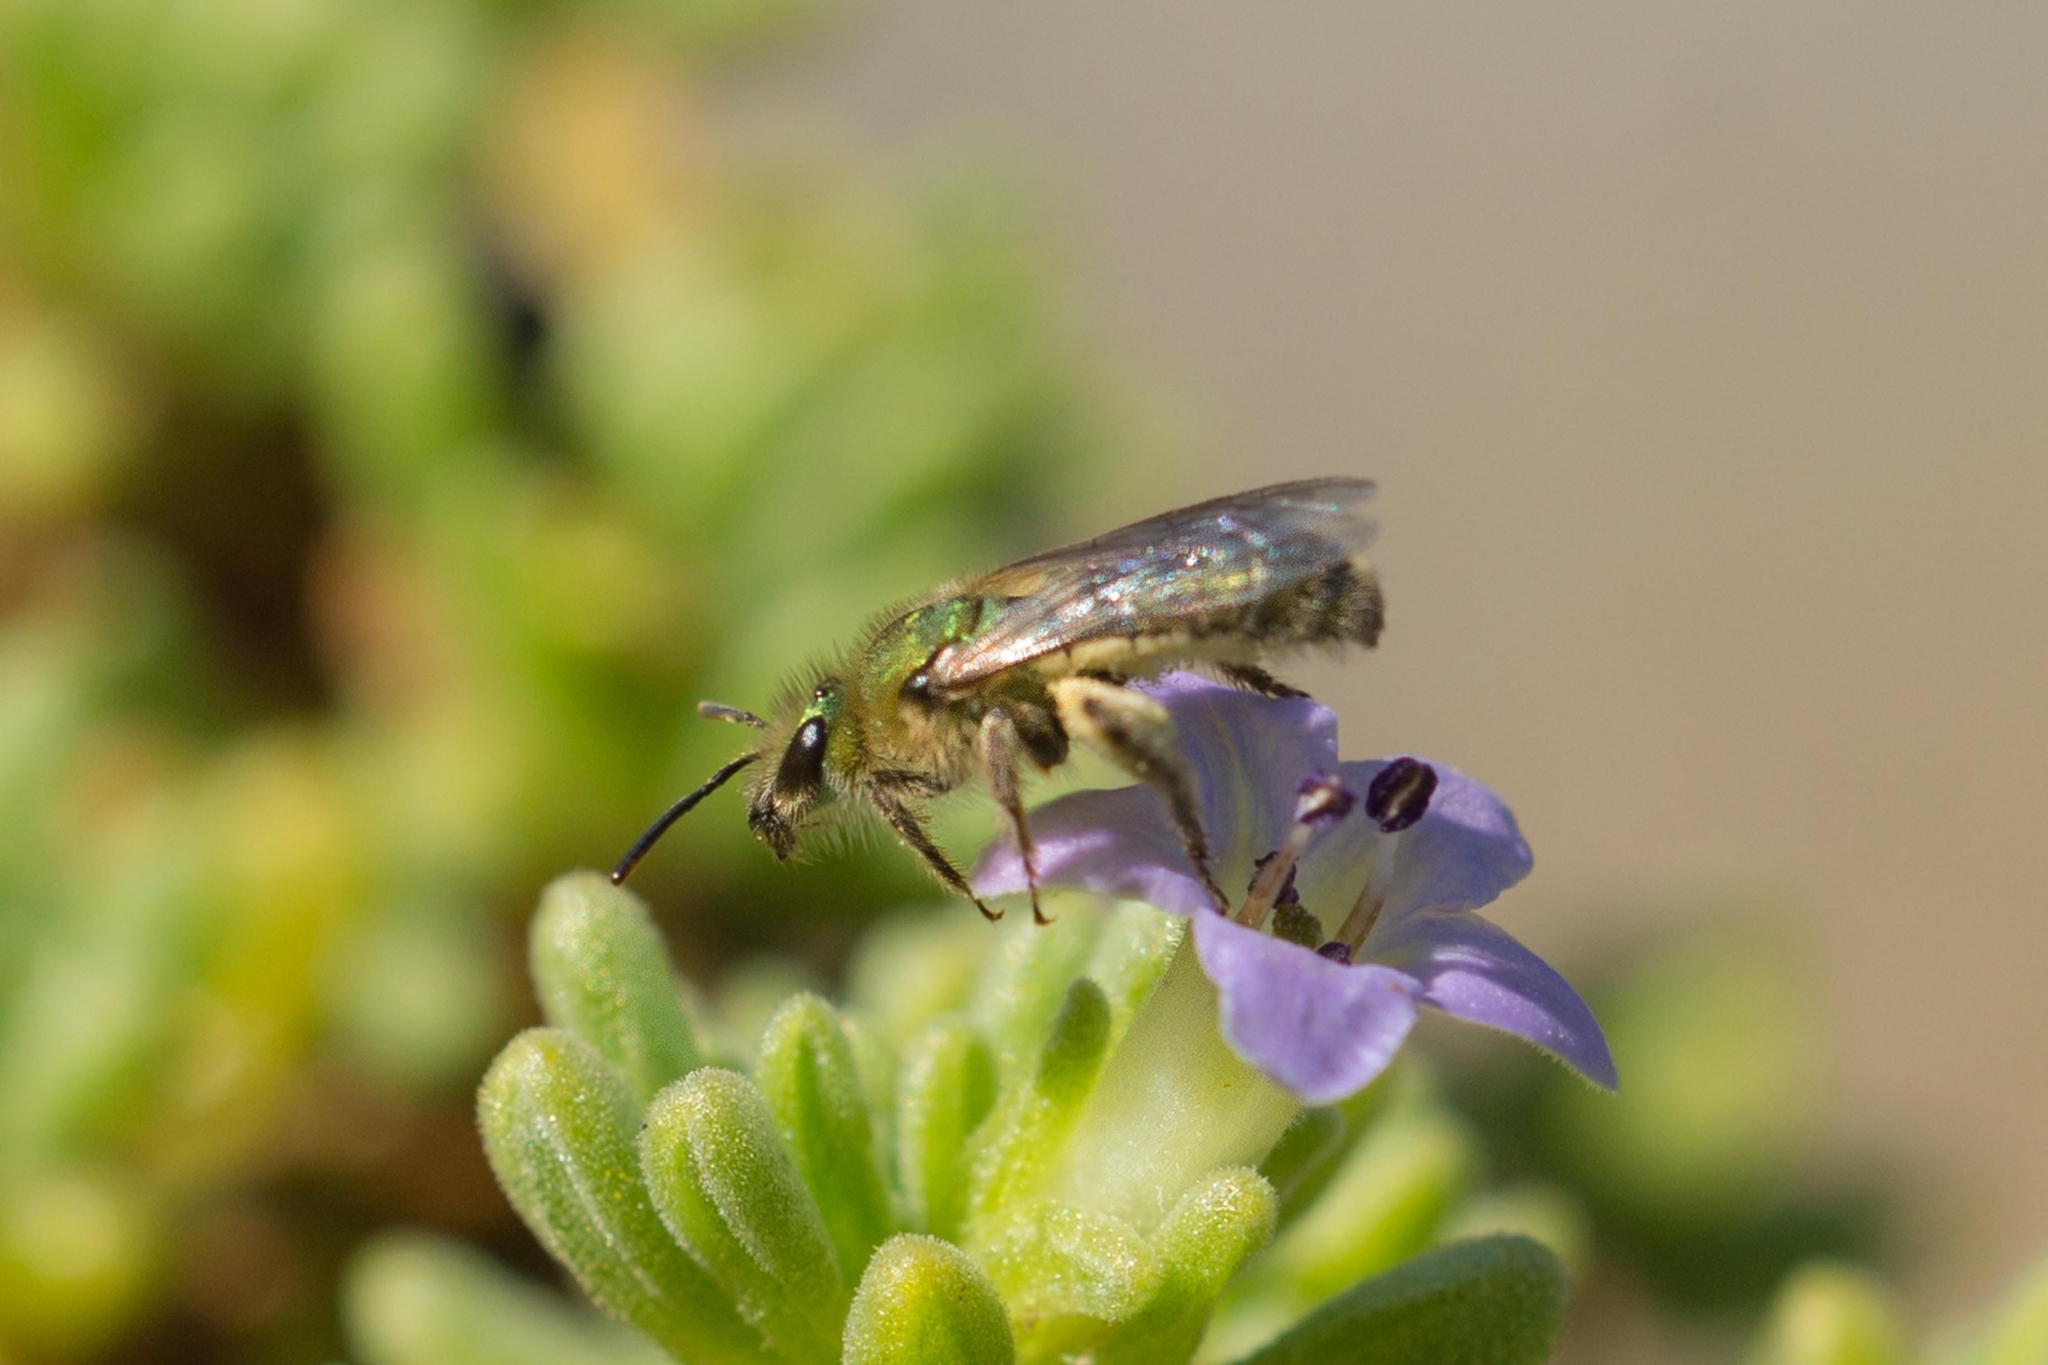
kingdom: Animalia
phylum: Arthropoda
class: Insecta
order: Hymenoptera
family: Halictidae
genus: Caenohalictus
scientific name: Caenohalictus rostraticeps
